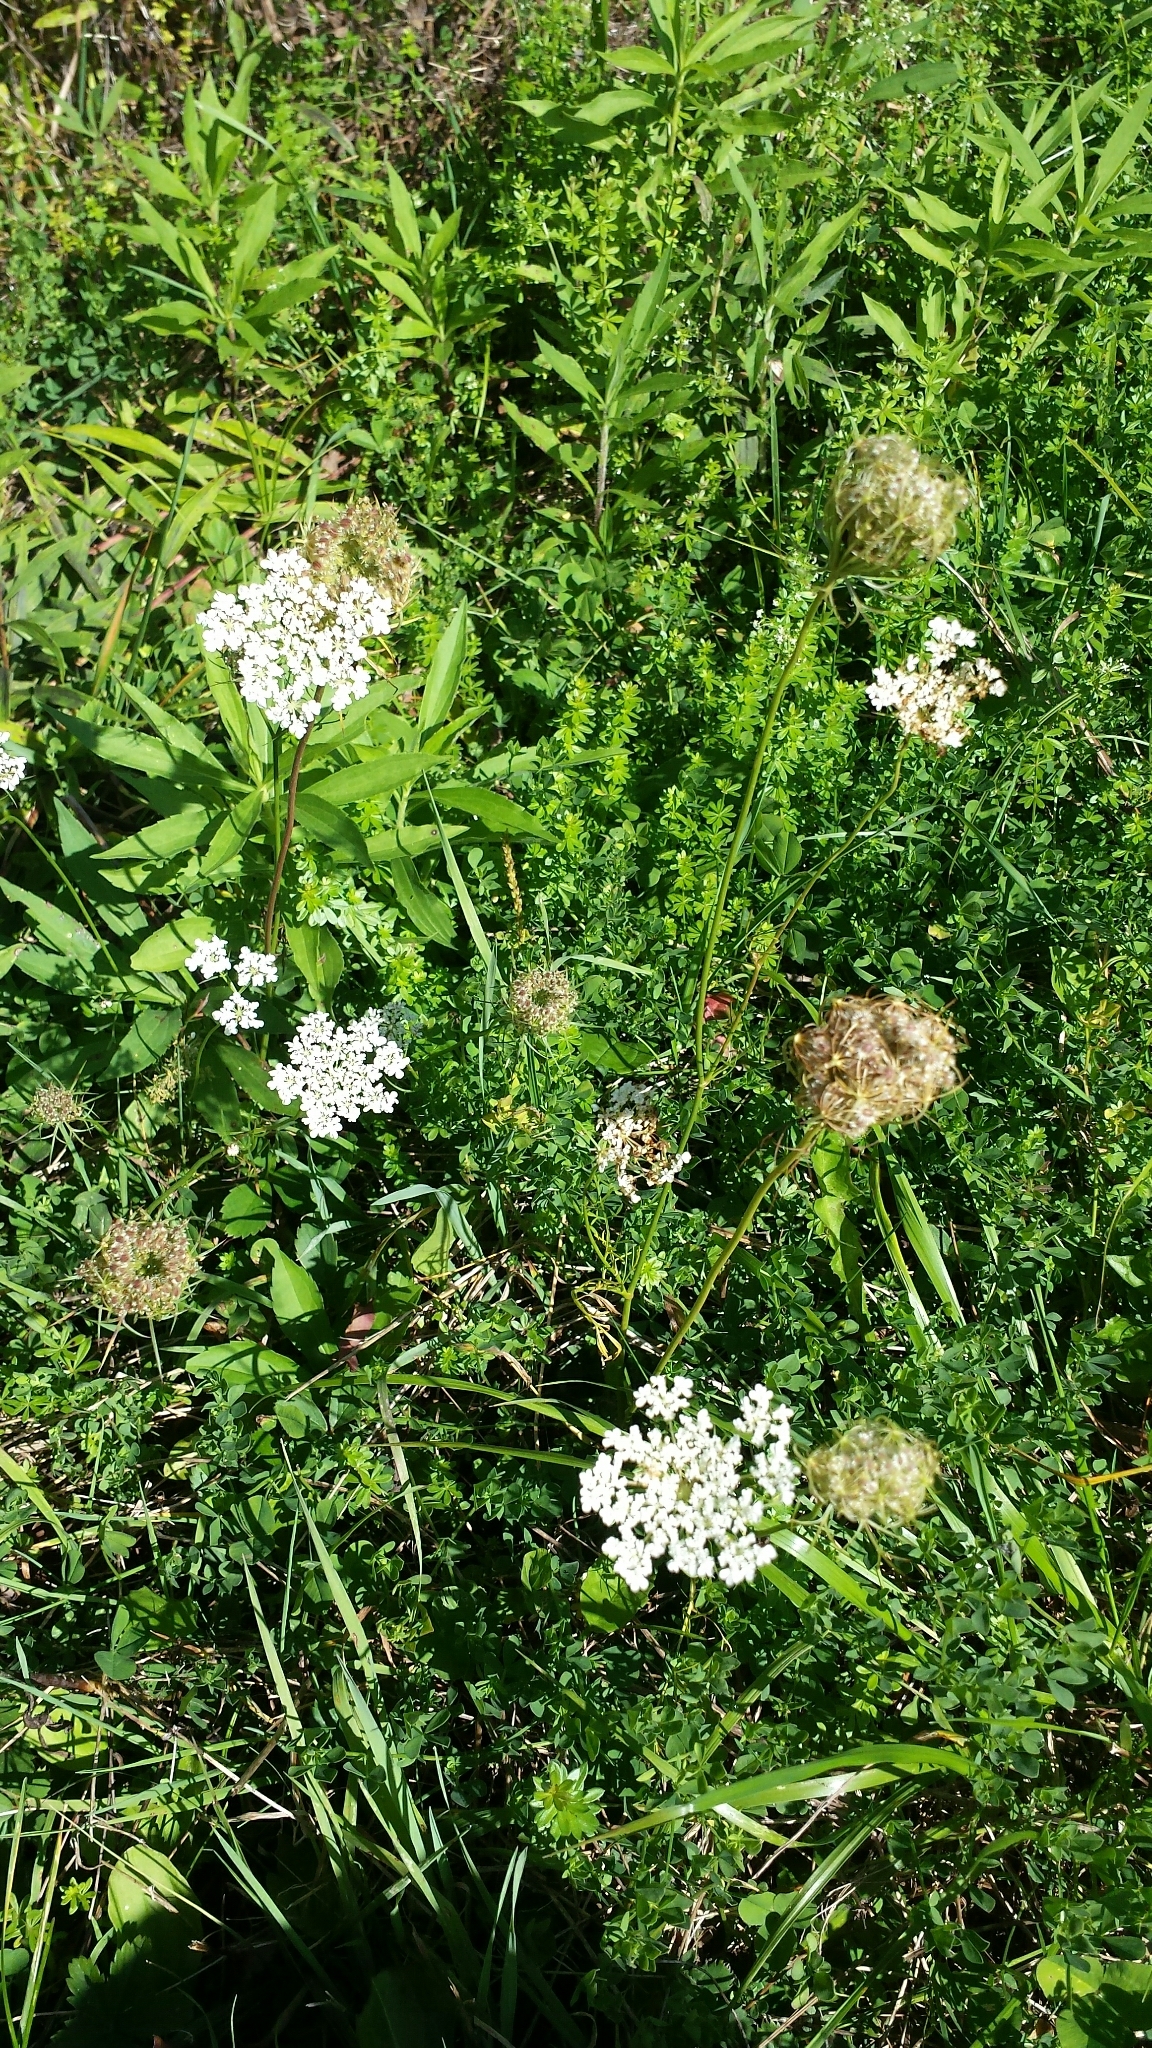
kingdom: Plantae
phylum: Tracheophyta
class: Magnoliopsida
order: Apiales
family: Apiaceae
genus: Daucus
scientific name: Daucus carota
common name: Wild carrot
